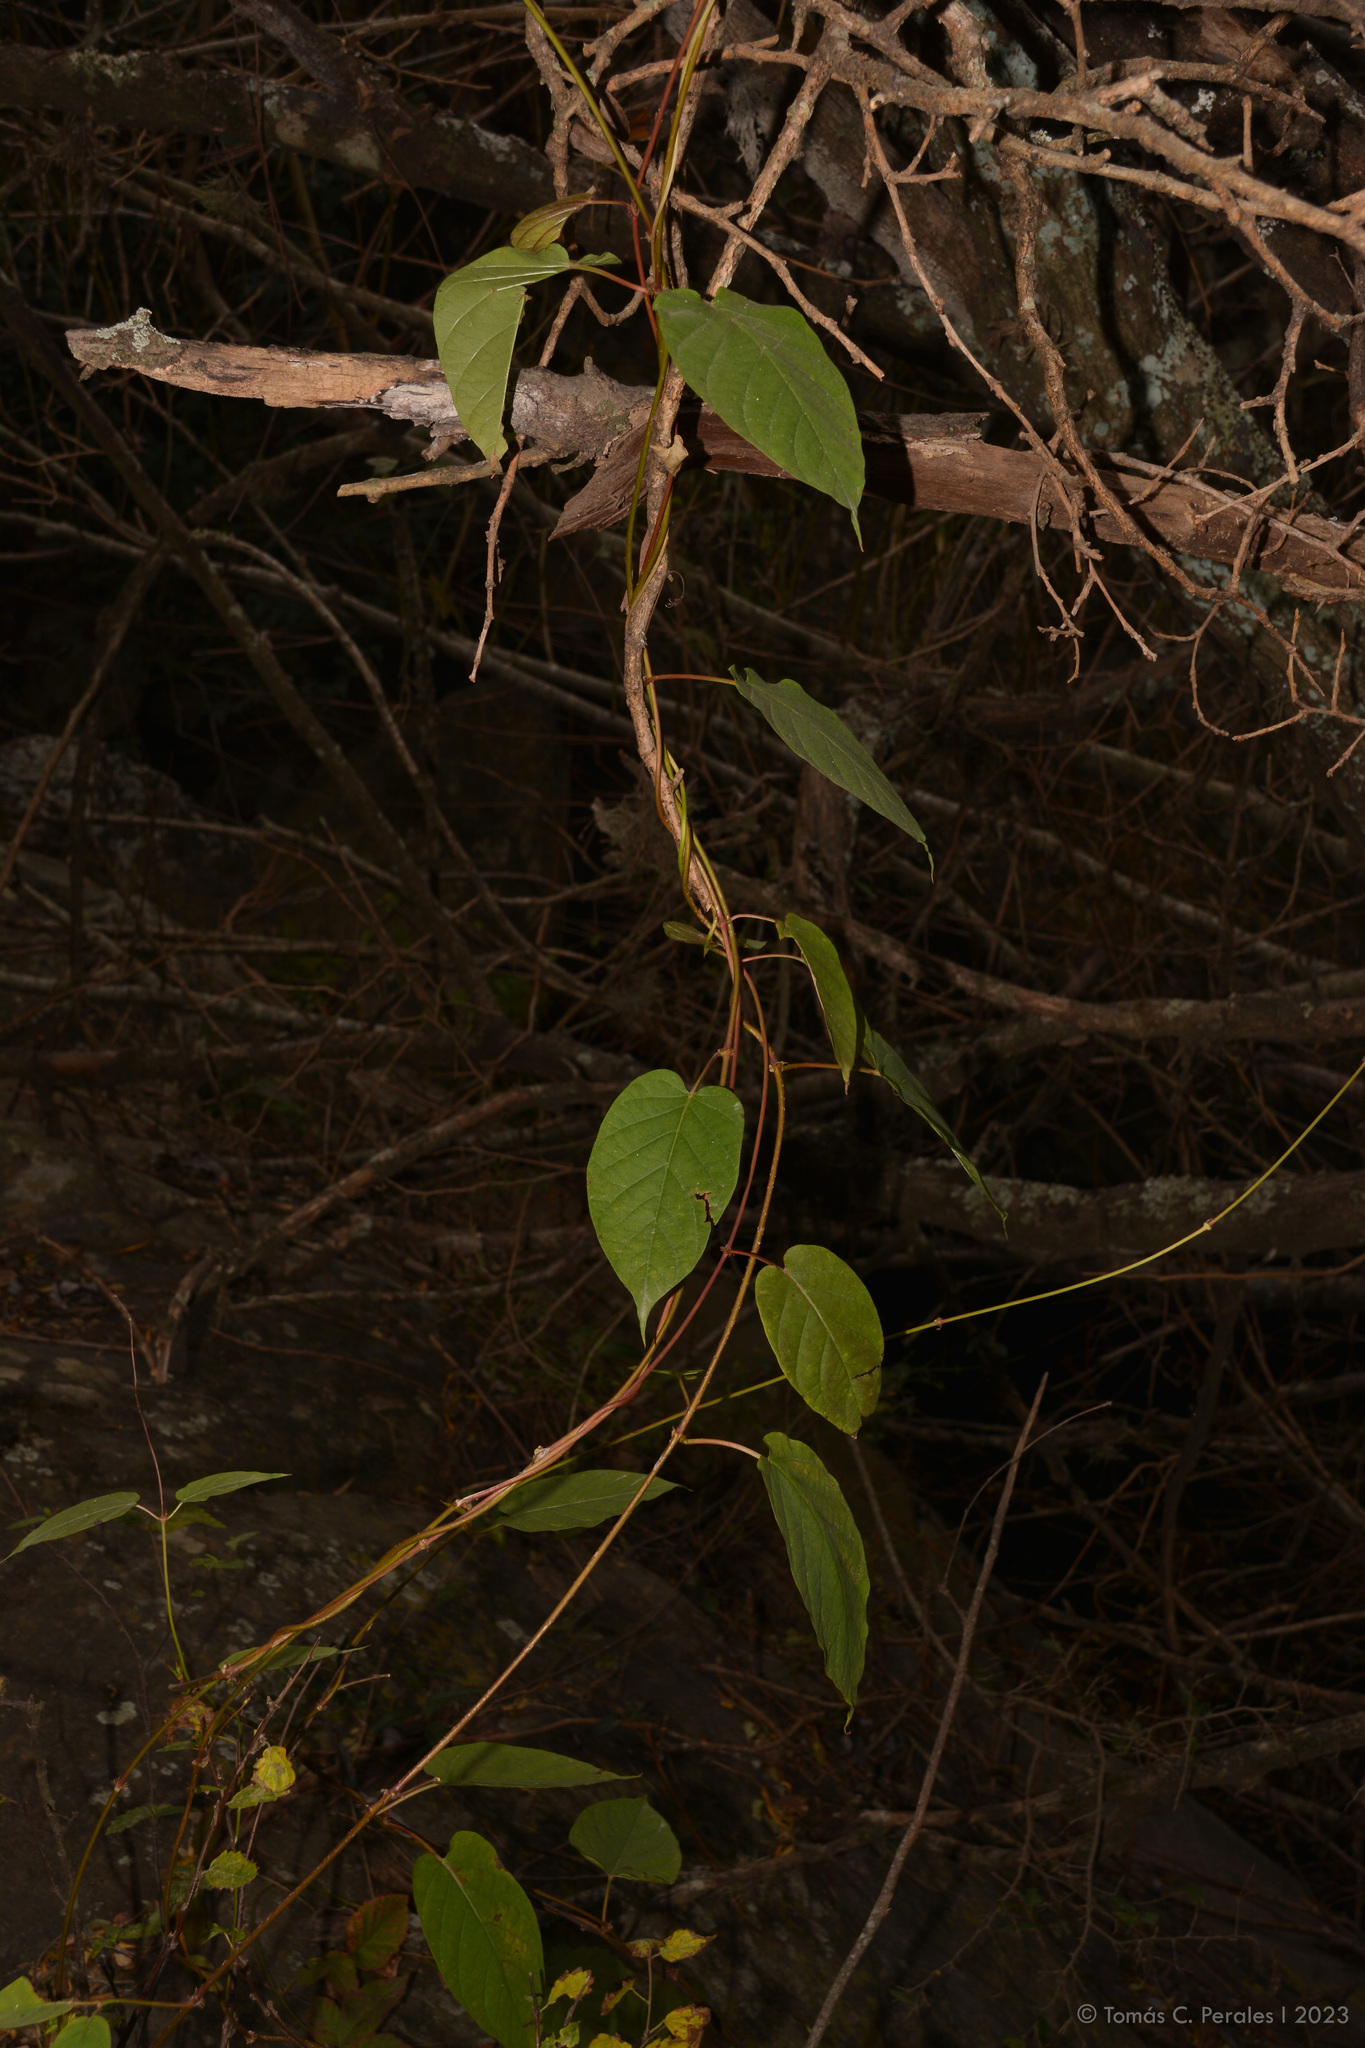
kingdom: Plantae
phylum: Tracheophyta
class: Magnoliopsida
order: Gentianales
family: Apocynaceae
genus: Mandevilla
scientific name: Mandevilla laxa
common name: Chilean-jasmine
